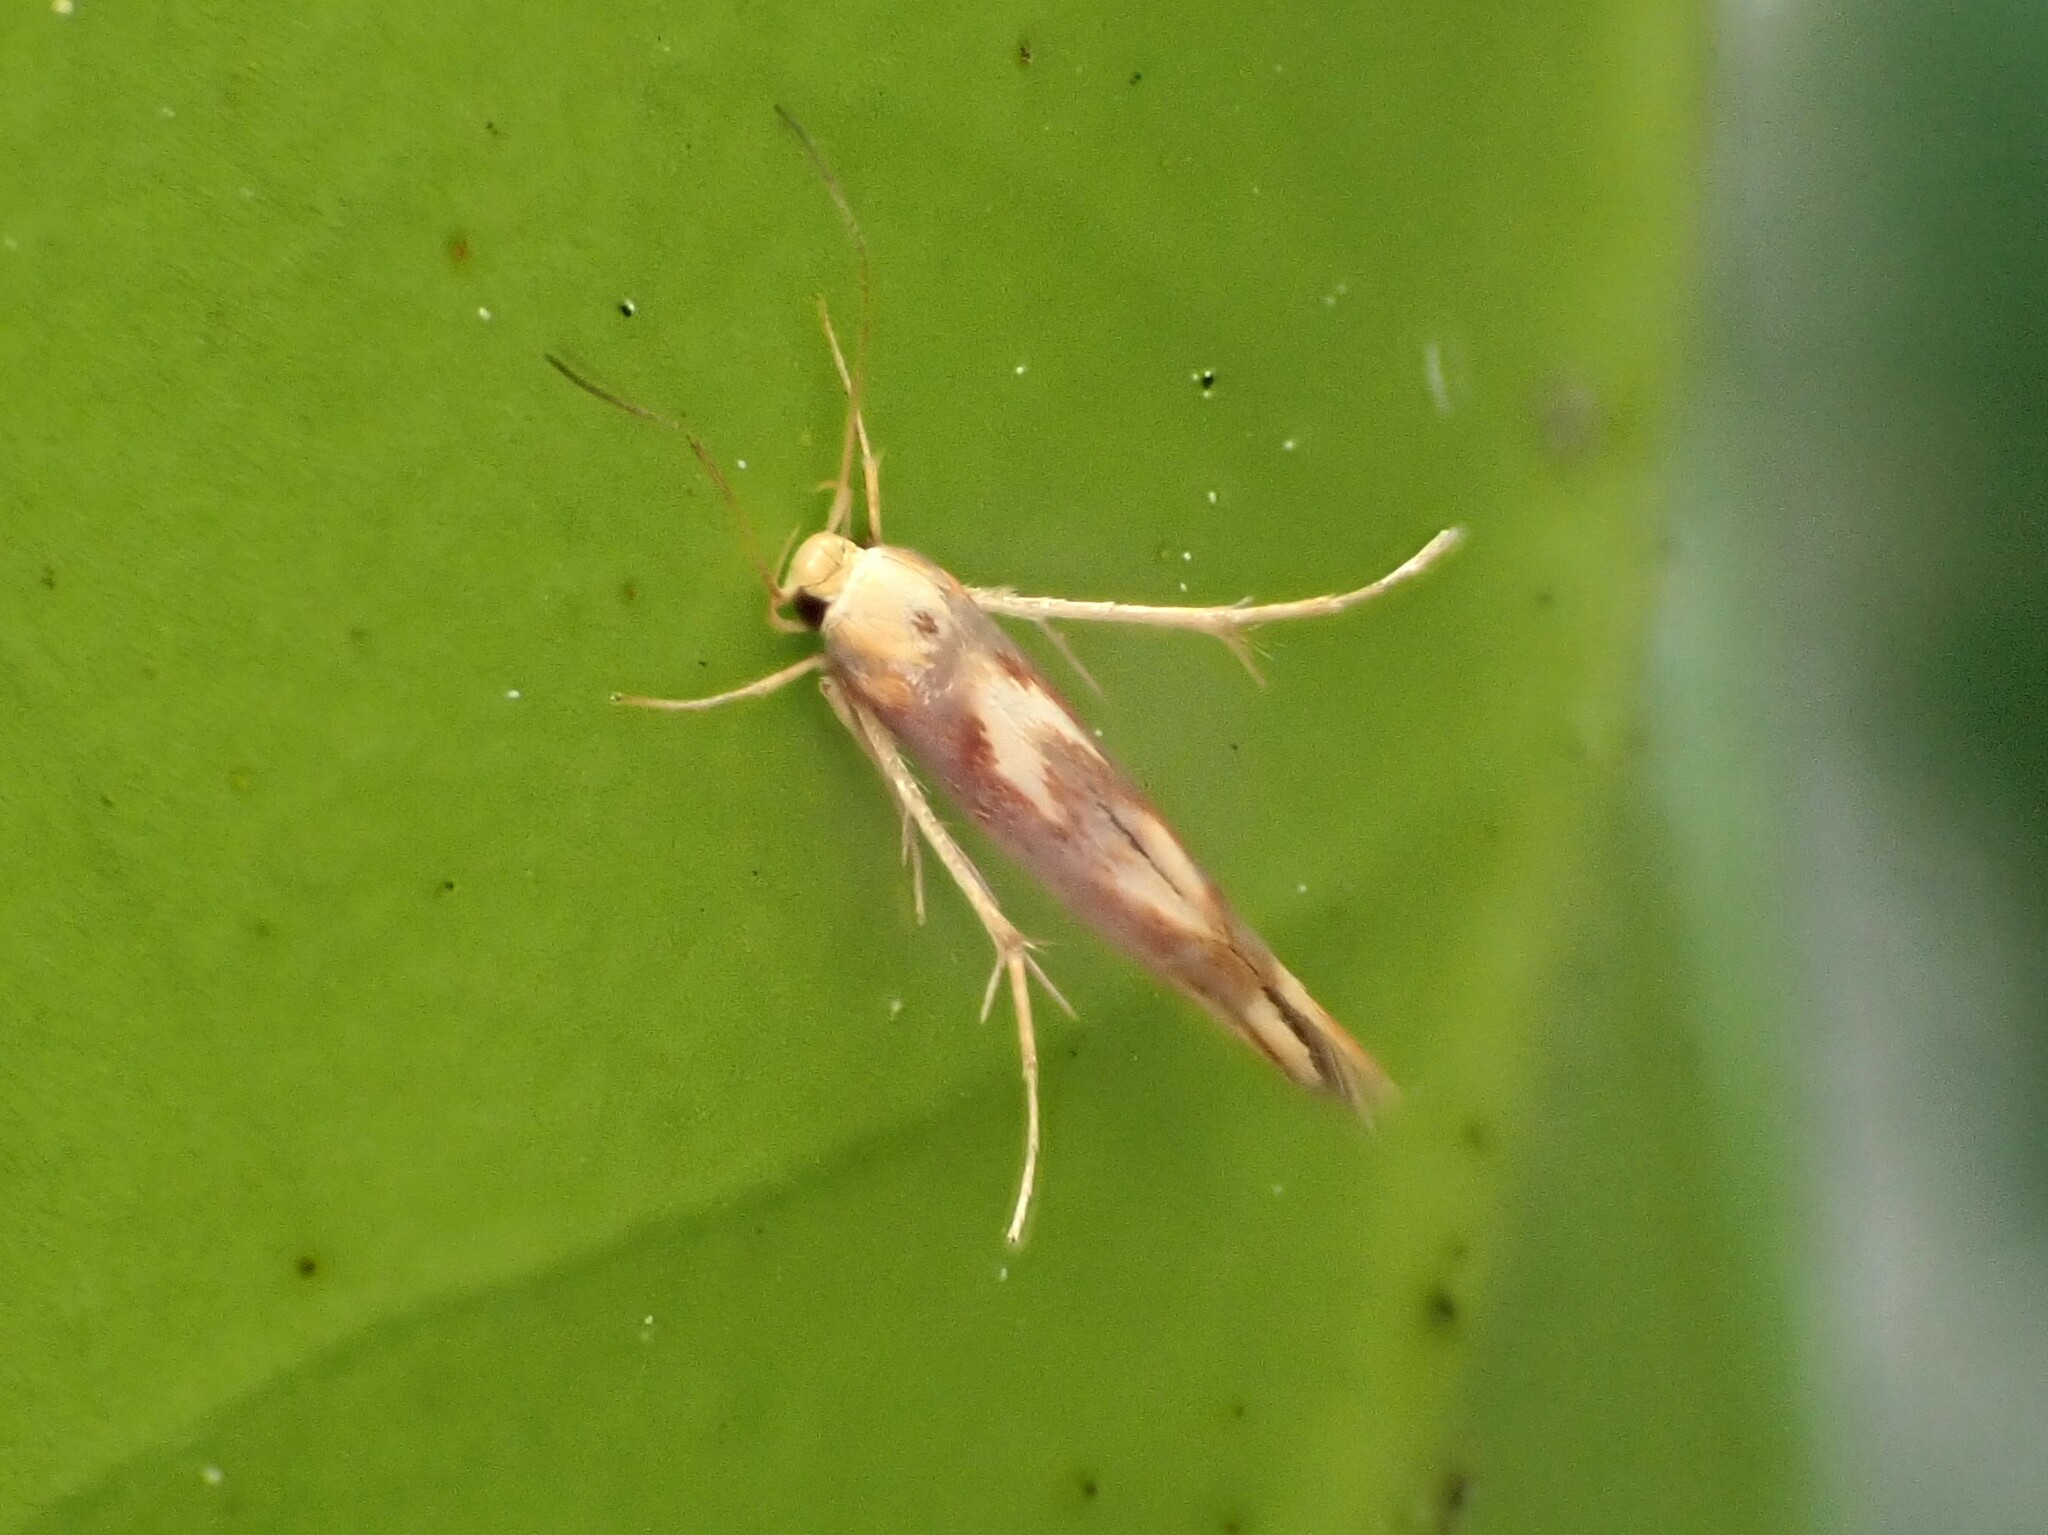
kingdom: Animalia
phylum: Arthropoda
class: Insecta
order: Lepidoptera
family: Stathmopodidae
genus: Stathmopoda
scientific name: Stathmopoda caminora
